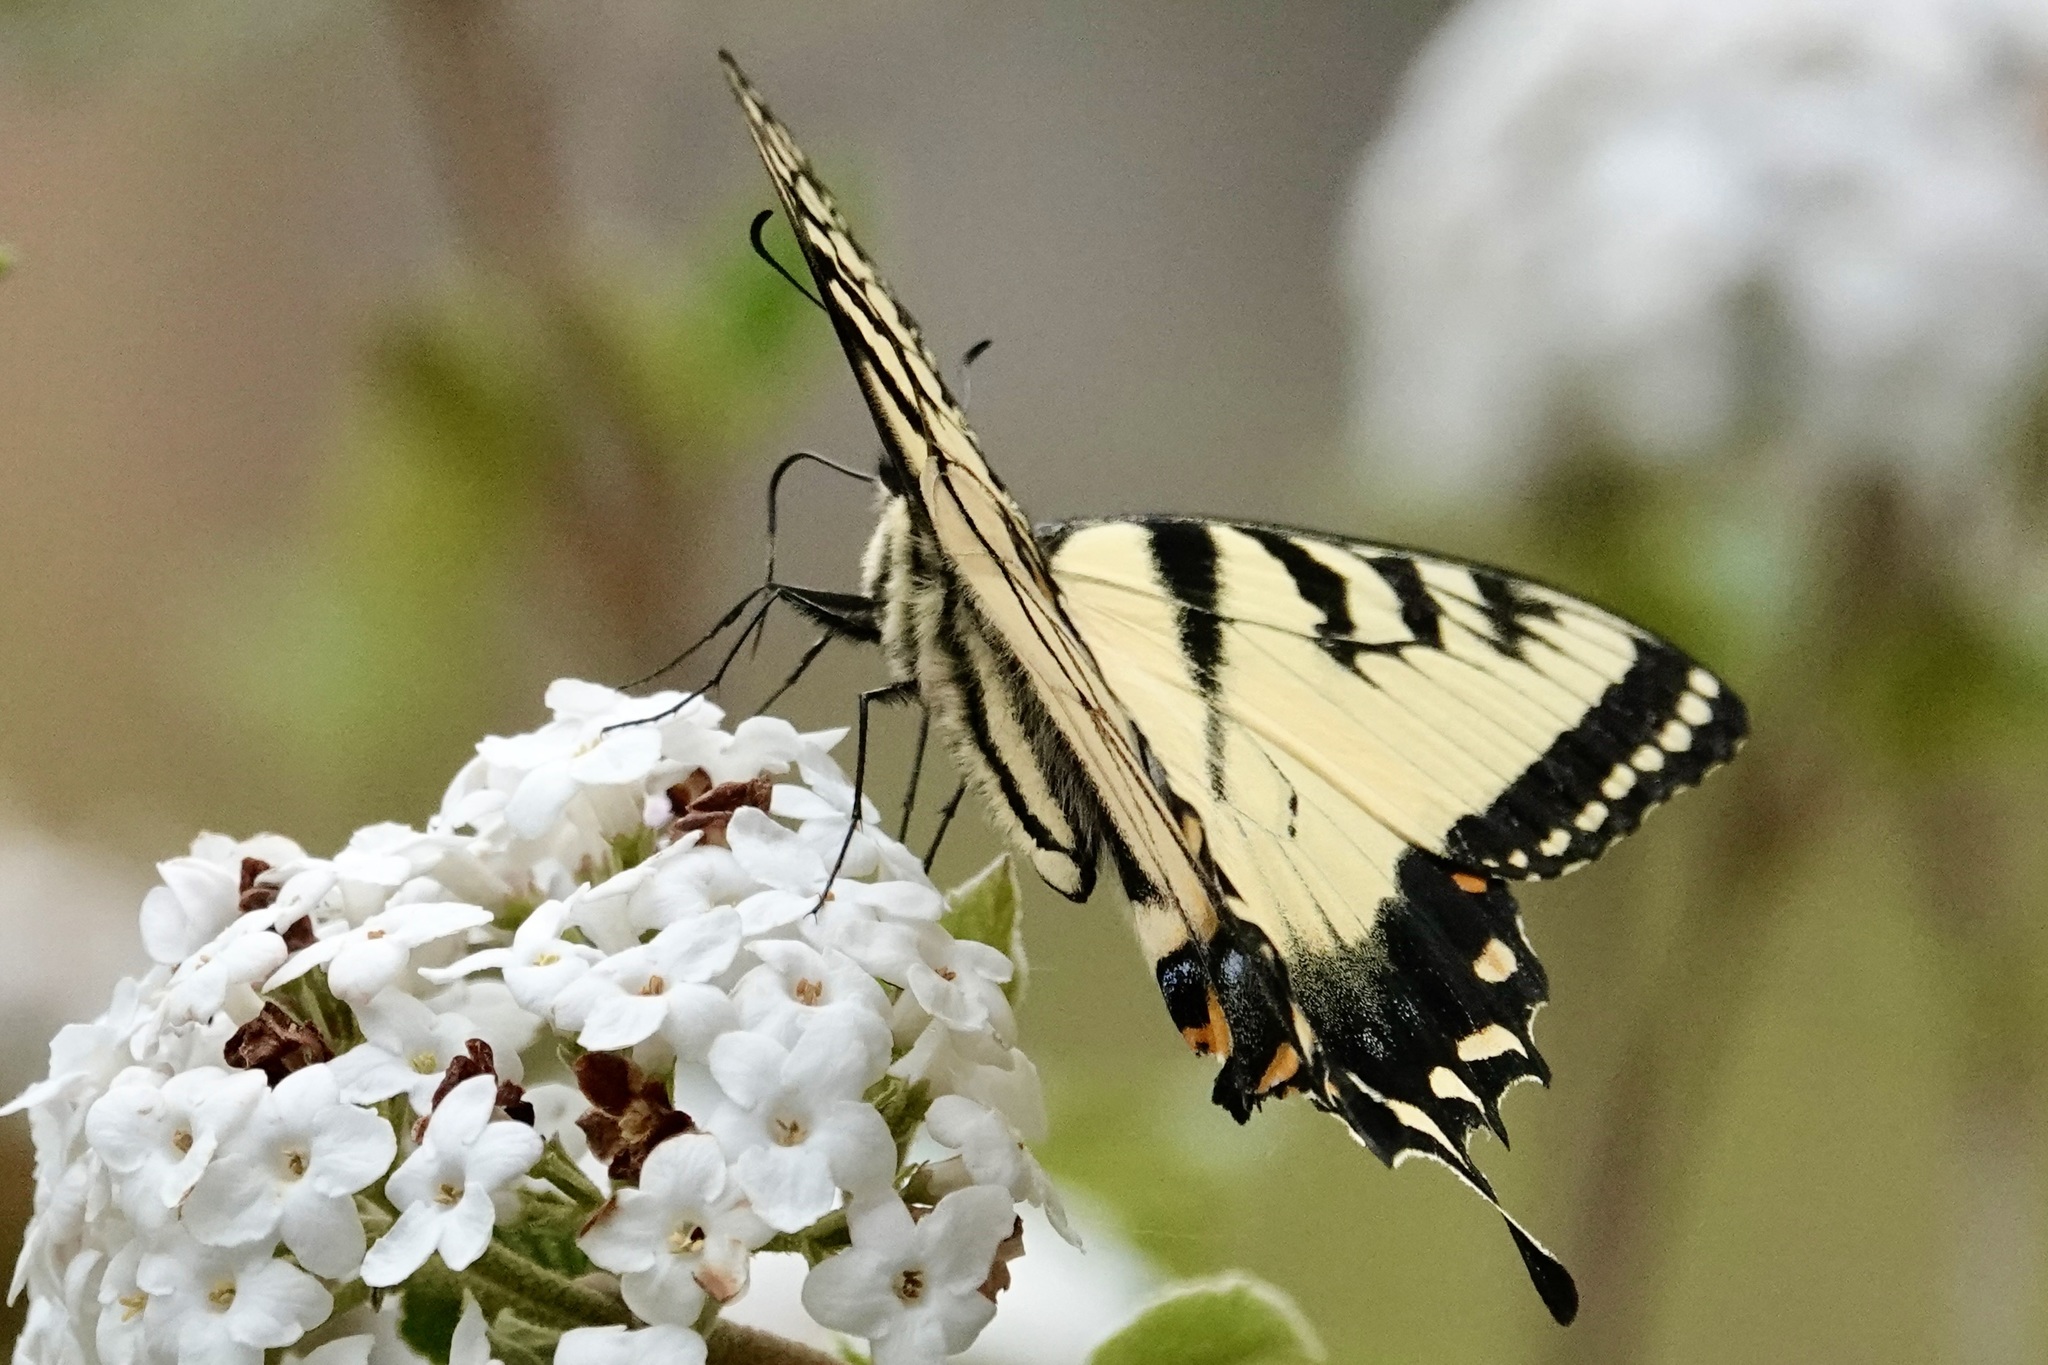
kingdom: Animalia
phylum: Arthropoda
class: Insecta
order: Lepidoptera
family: Papilionidae
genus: Papilio
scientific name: Papilio glaucus
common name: Tiger swallowtail
